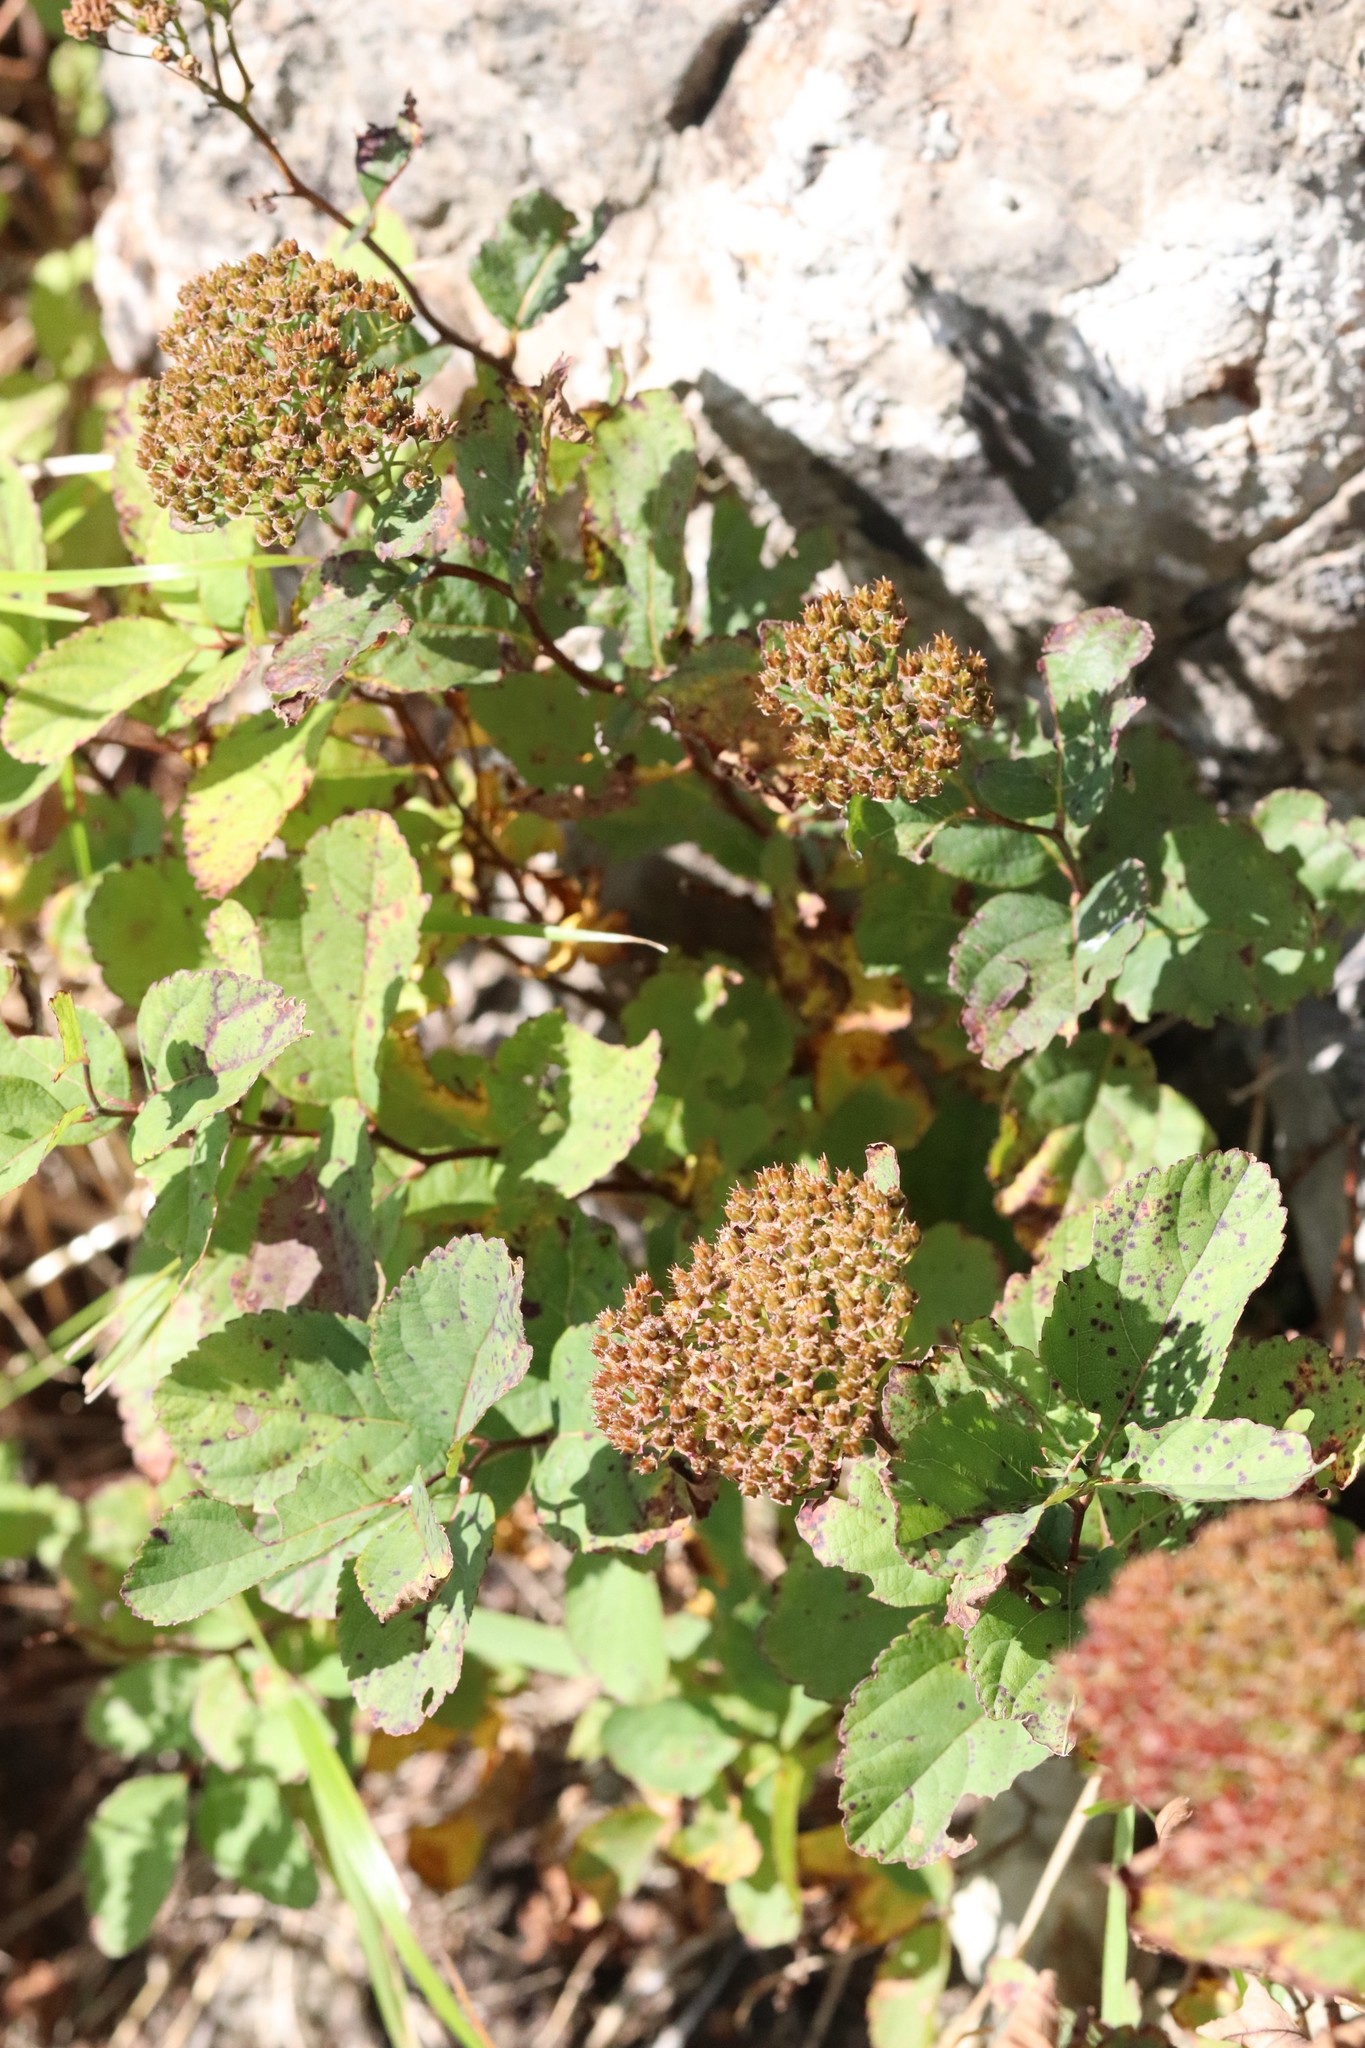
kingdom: Plantae
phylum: Tracheophyta
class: Magnoliopsida
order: Rosales
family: Rosaceae
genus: Spiraea
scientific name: Spiraea betulifolia
